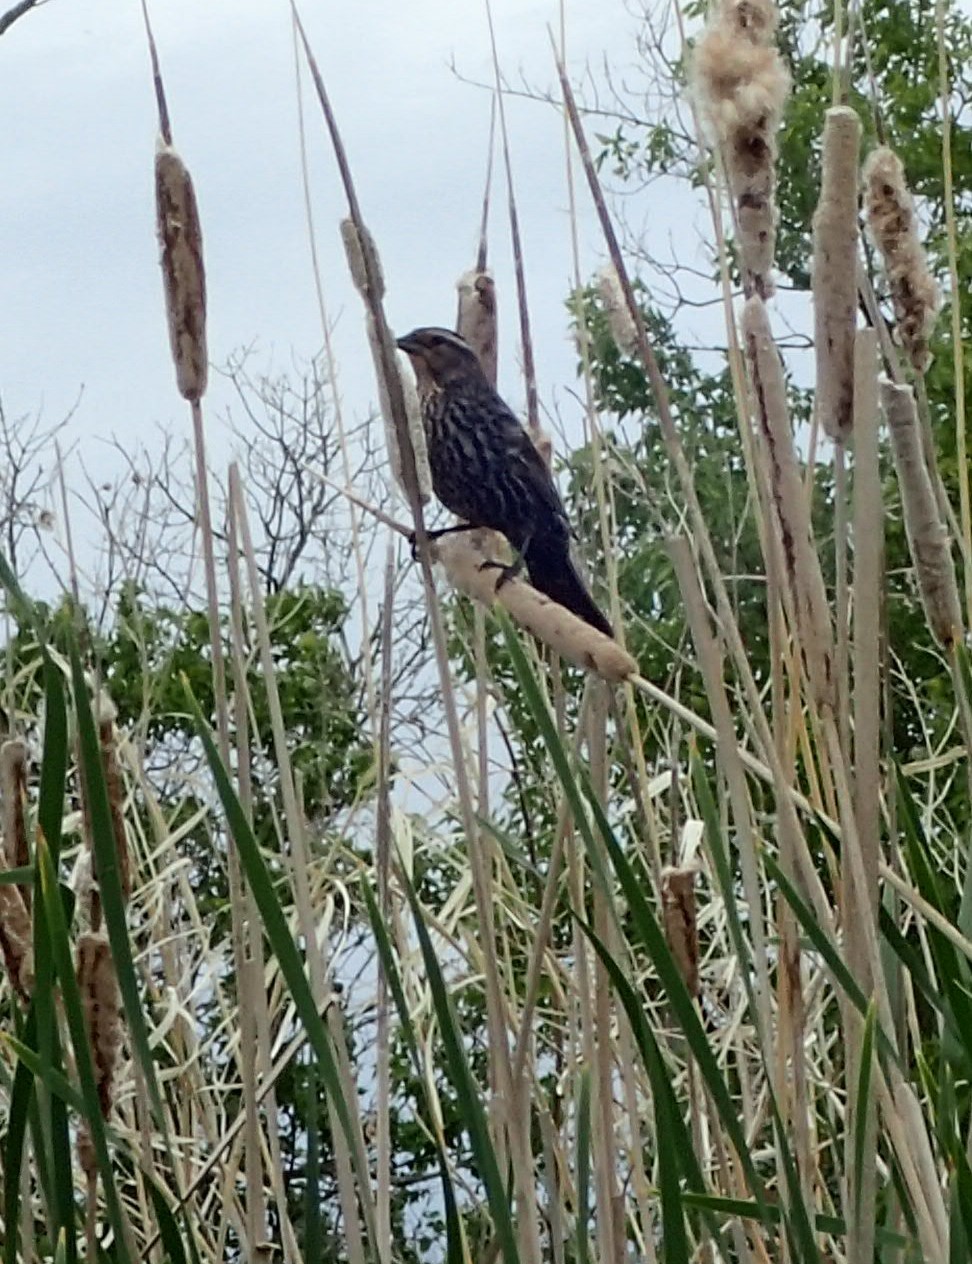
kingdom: Animalia
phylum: Chordata
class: Aves
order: Passeriformes
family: Icteridae
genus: Agelaius
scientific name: Agelaius phoeniceus
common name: Red-winged blackbird
